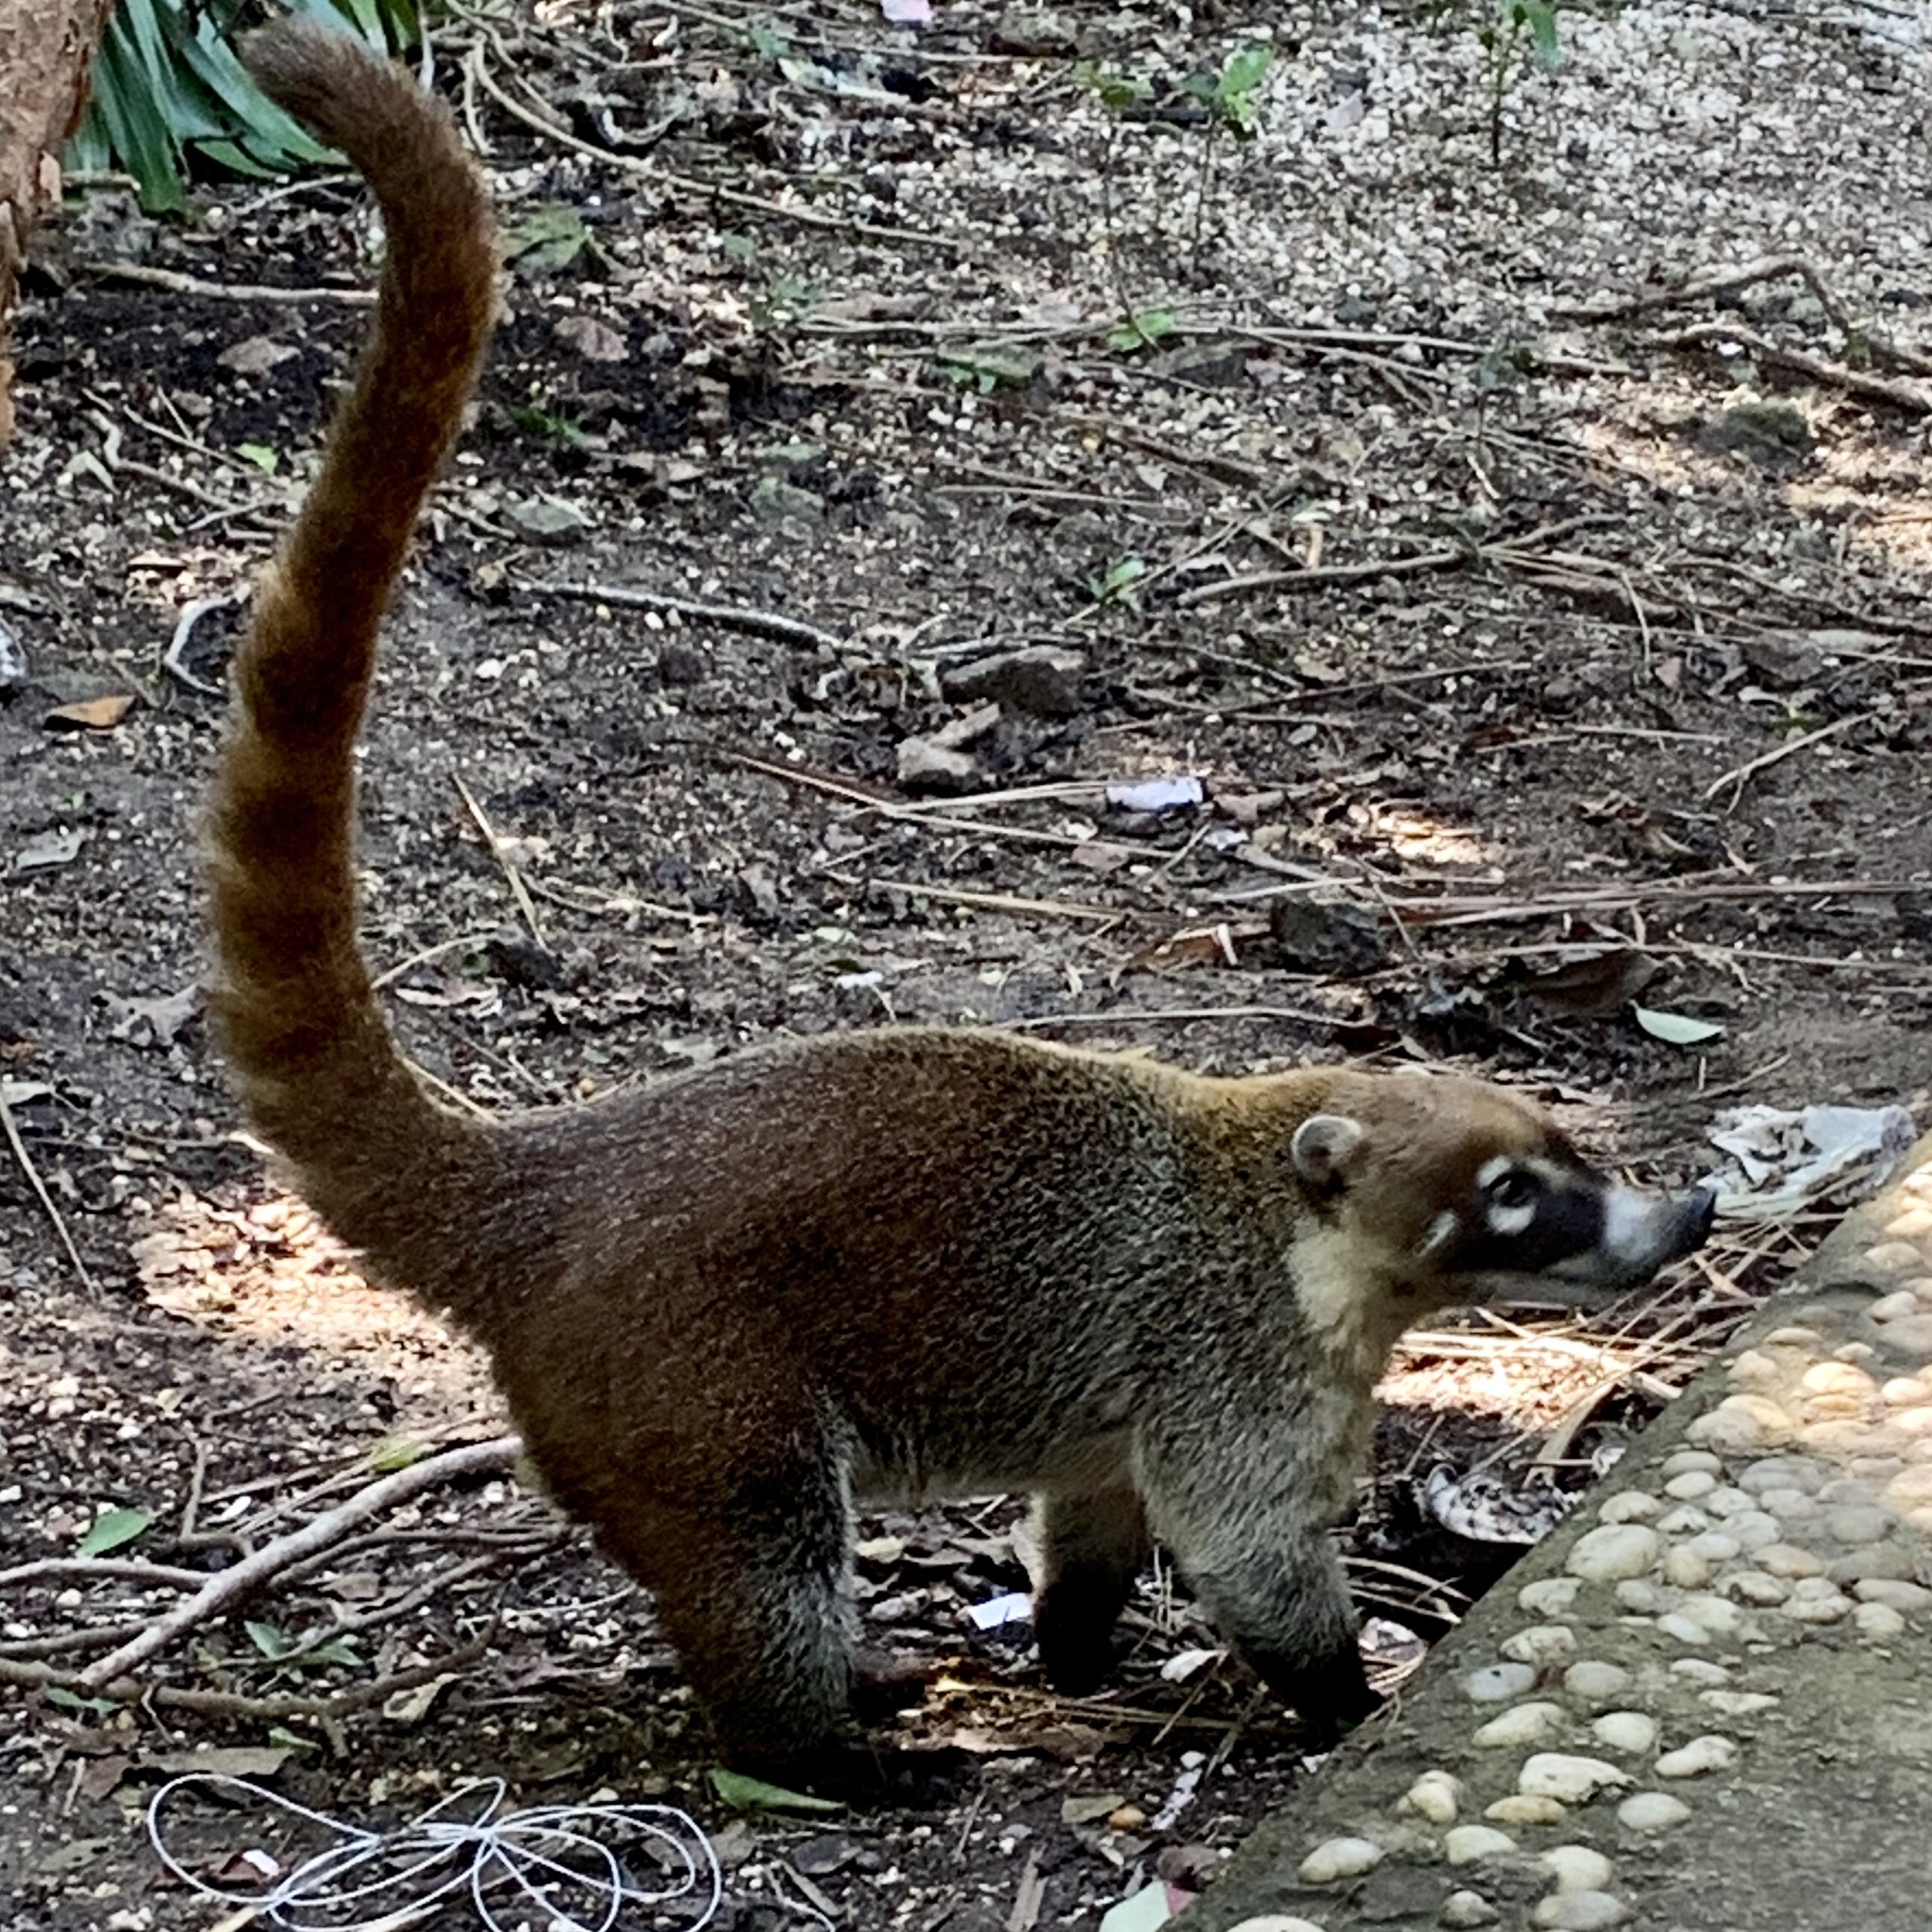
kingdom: Animalia
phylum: Chordata
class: Mammalia
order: Carnivora
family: Procyonidae
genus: Nasua
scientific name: Nasua narica
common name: White-nosed coati
